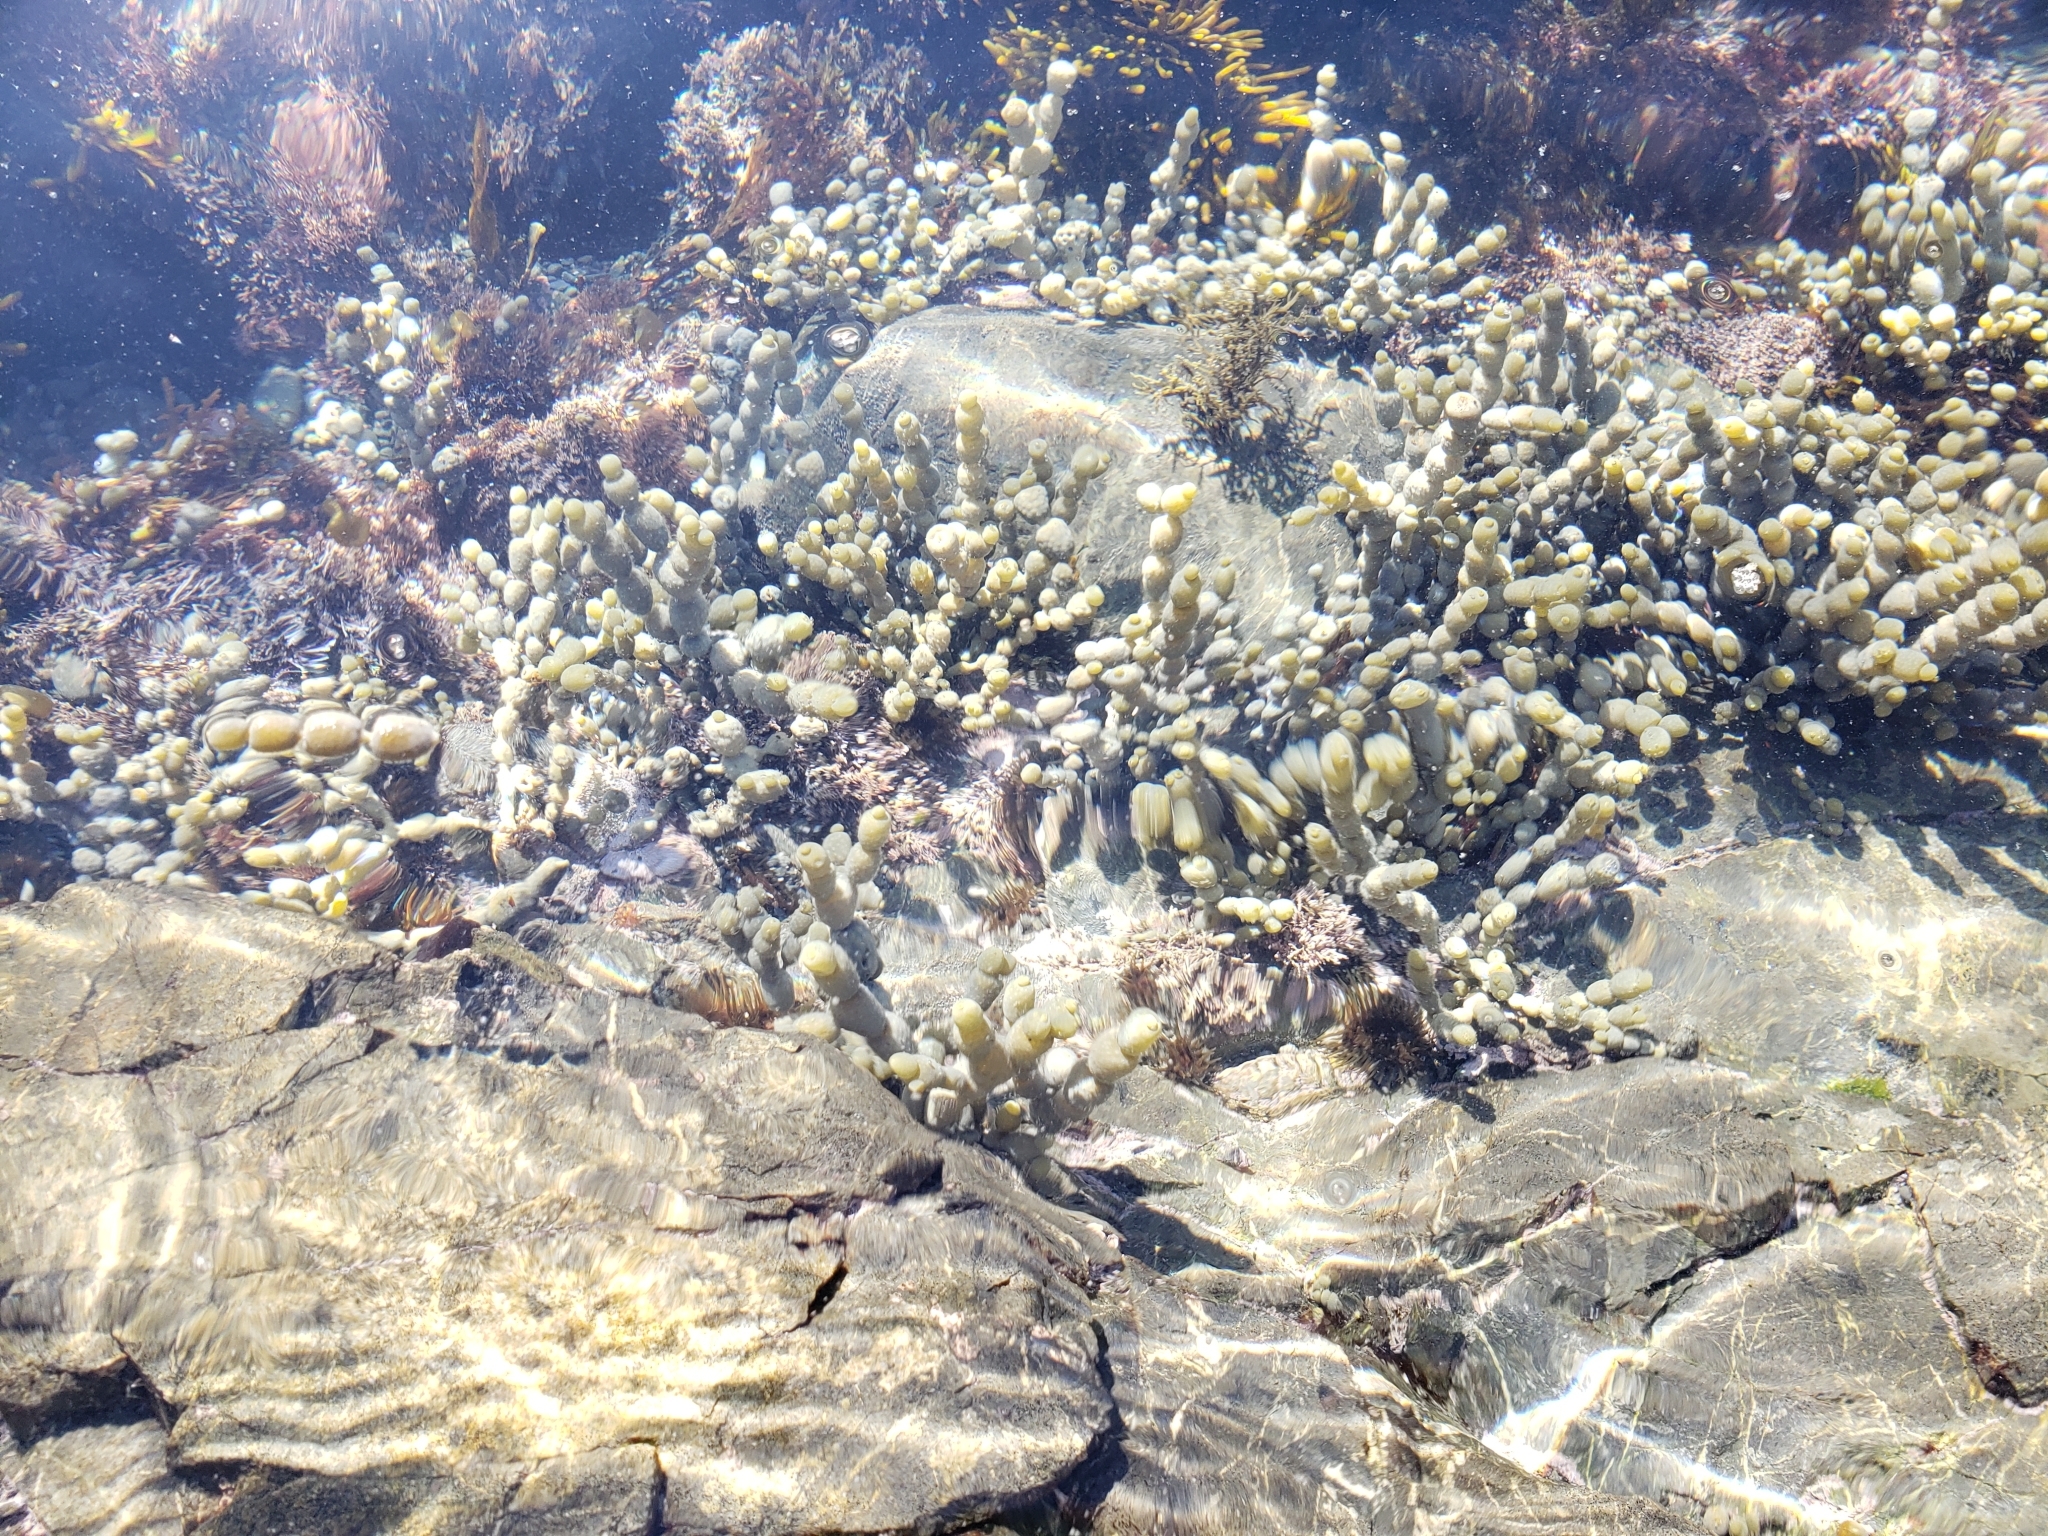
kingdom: Chromista
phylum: Ochrophyta
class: Phaeophyceae
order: Fucales
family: Hormosiraceae
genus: Hormosira
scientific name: Hormosira banksii
